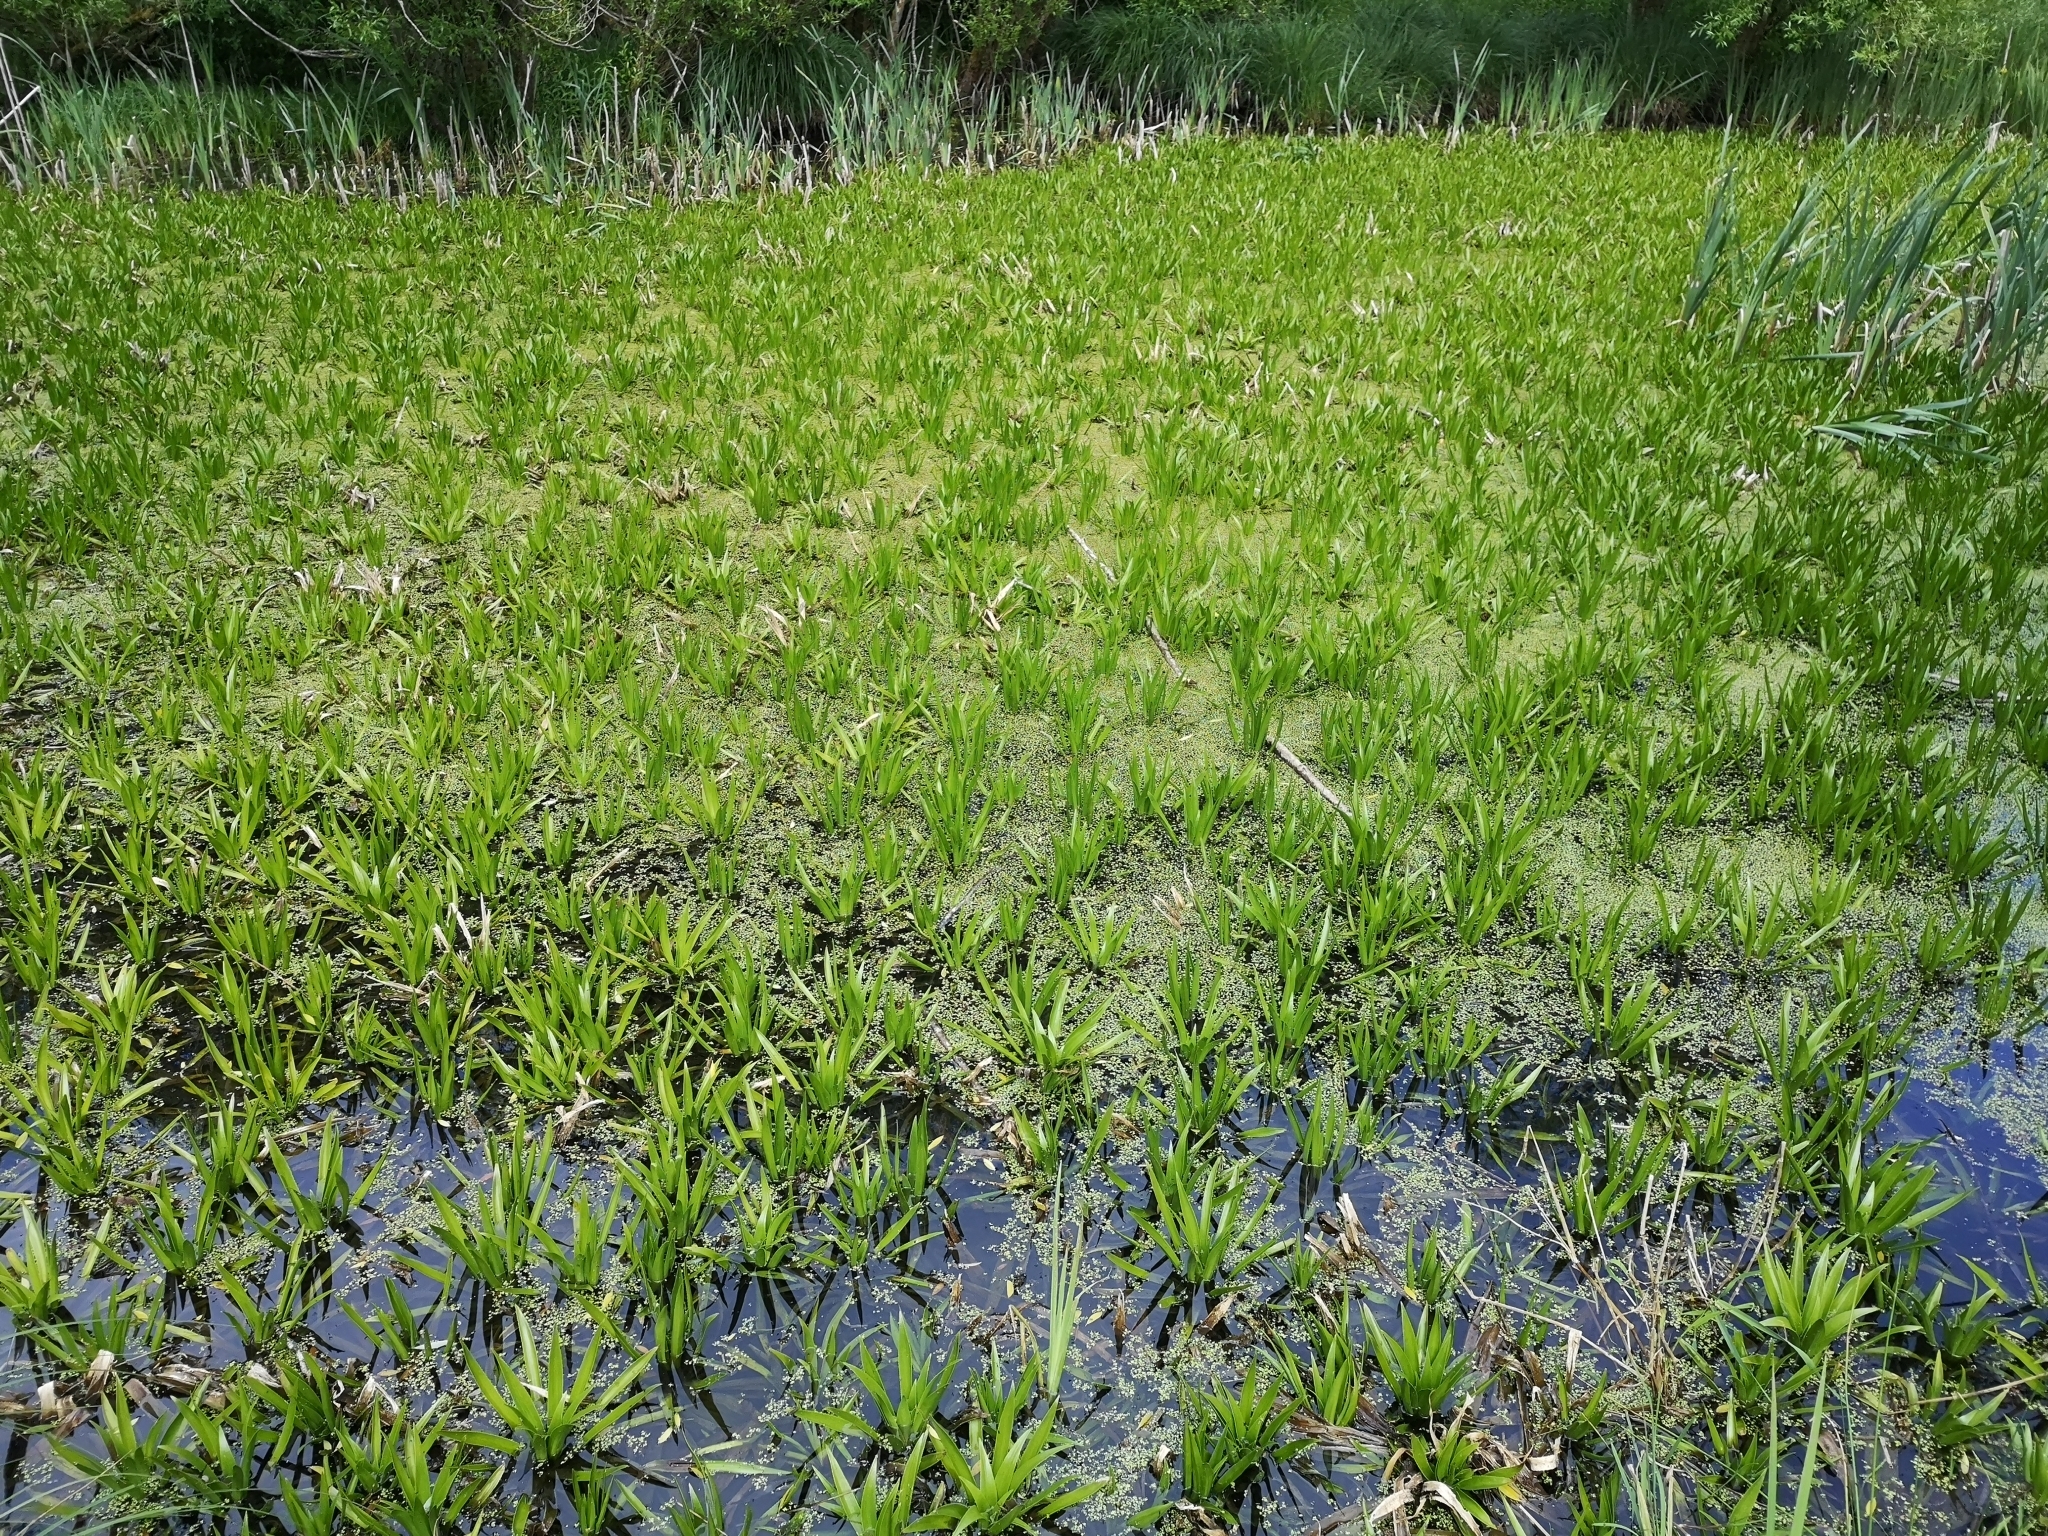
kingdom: Plantae
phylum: Tracheophyta
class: Liliopsida
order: Alismatales
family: Hydrocharitaceae
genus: Stratiotes
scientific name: Stratiotes aloides
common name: Water-soldier
